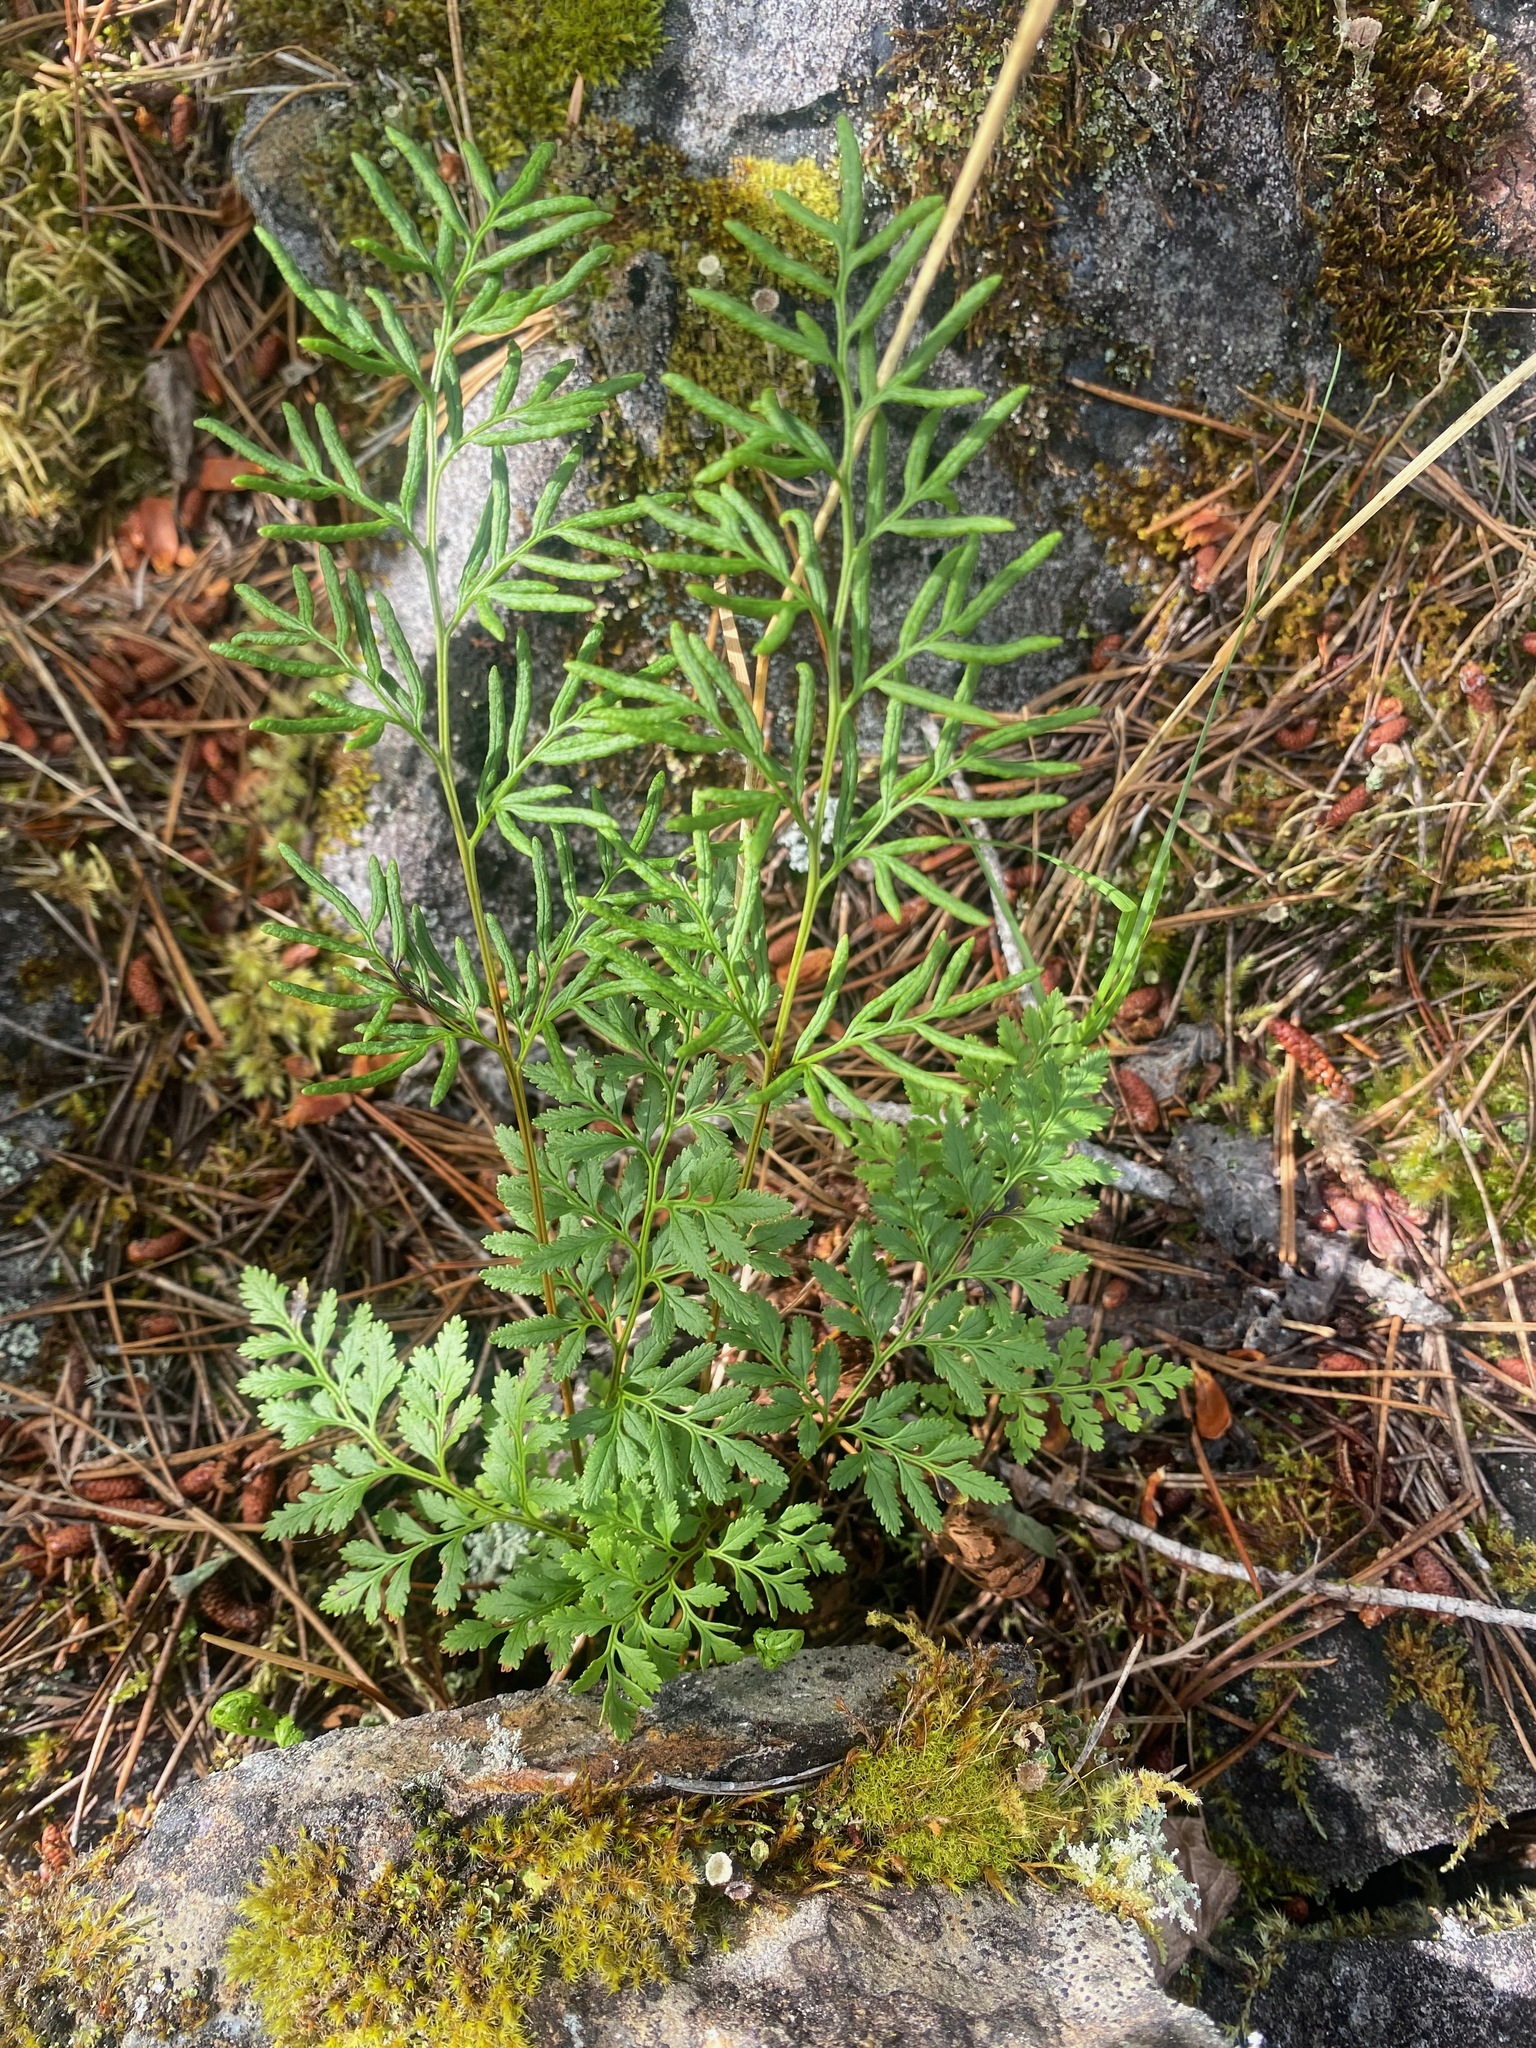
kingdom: Plantae
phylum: Tracheophyta
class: Polypodiopsida
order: Polypodiales
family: Pteridaceae
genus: Cryptogramma
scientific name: Cryptogramma acrostichoides
